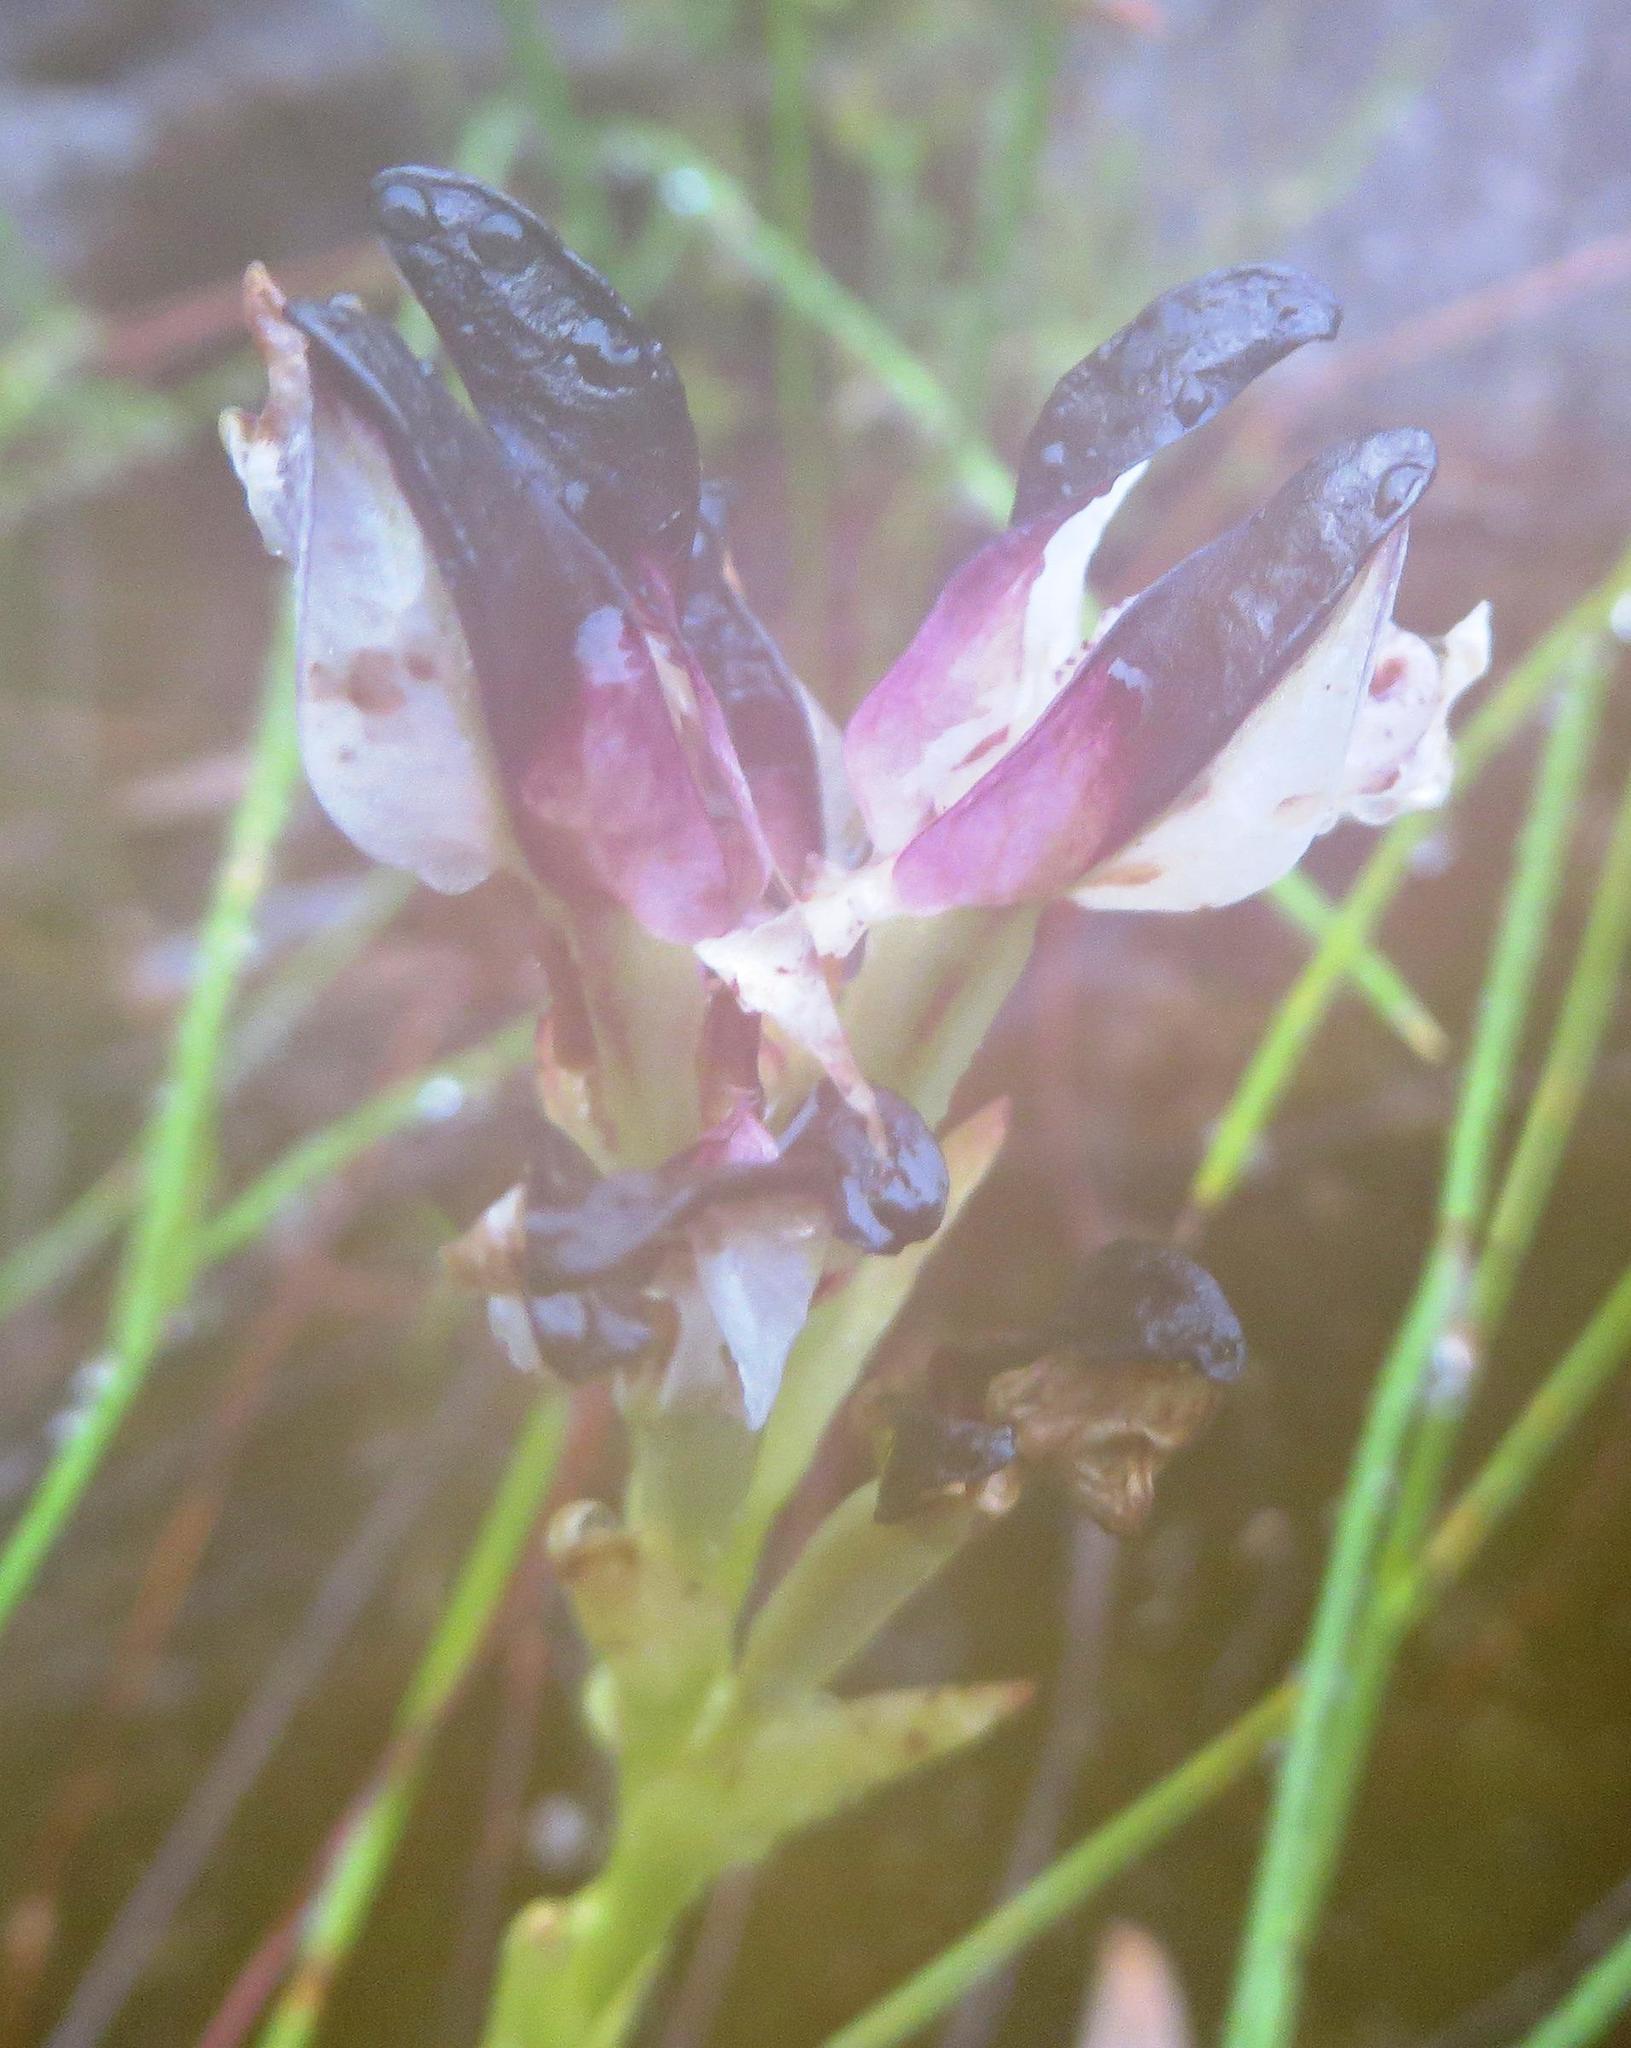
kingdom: Plantae
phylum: Tracheophyta
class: Liliopsida
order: Asparagales
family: Orchidaceae
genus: Disa
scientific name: Disa atricapilla
